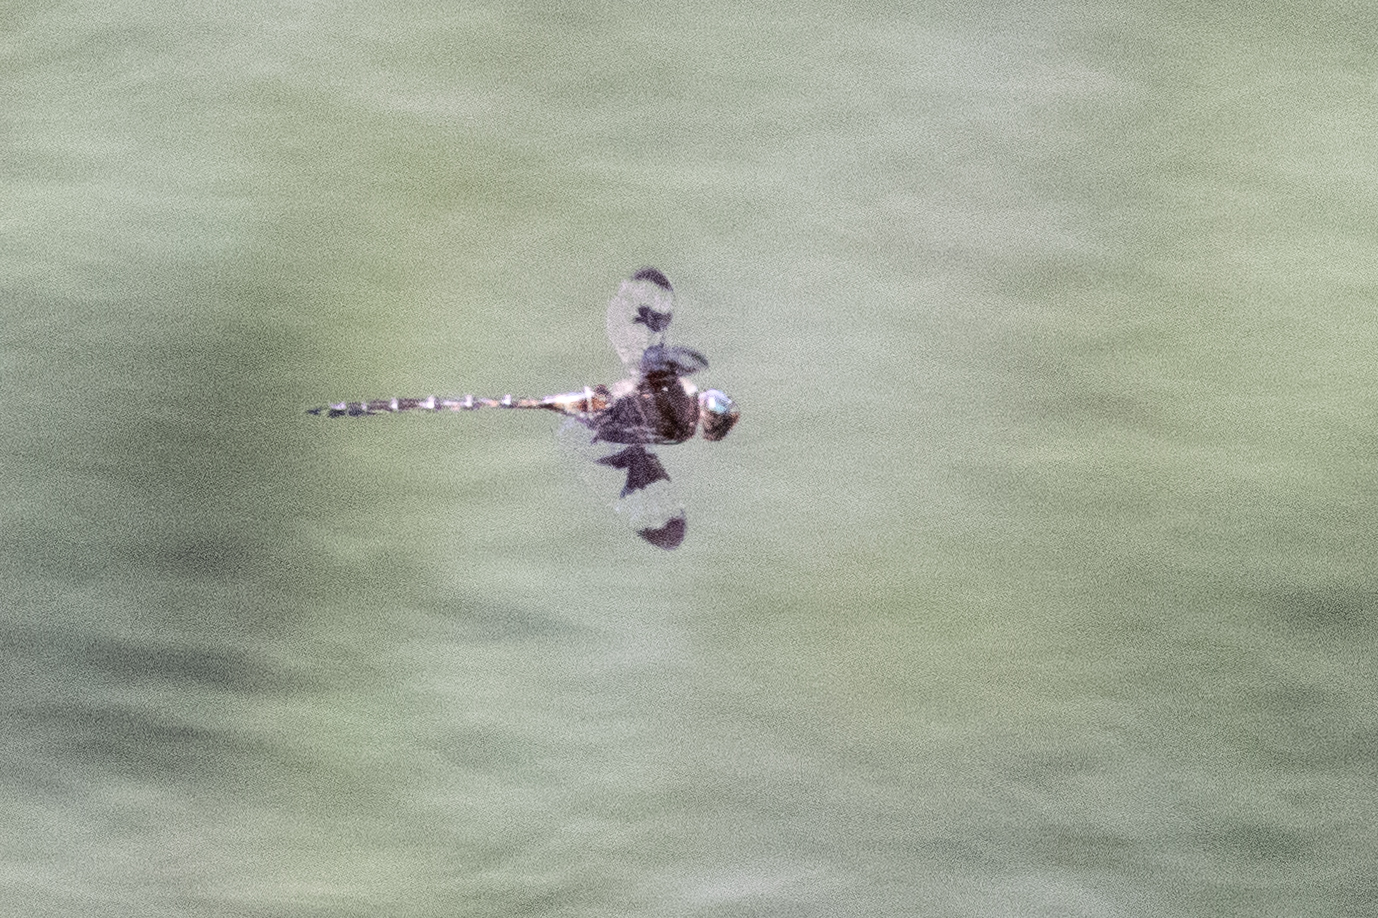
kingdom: Animalia
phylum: Arthropoda
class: Insecta
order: Odonata
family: Corduliidae
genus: Epitheca
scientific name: Epitheca princeps
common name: Prince baskettail
